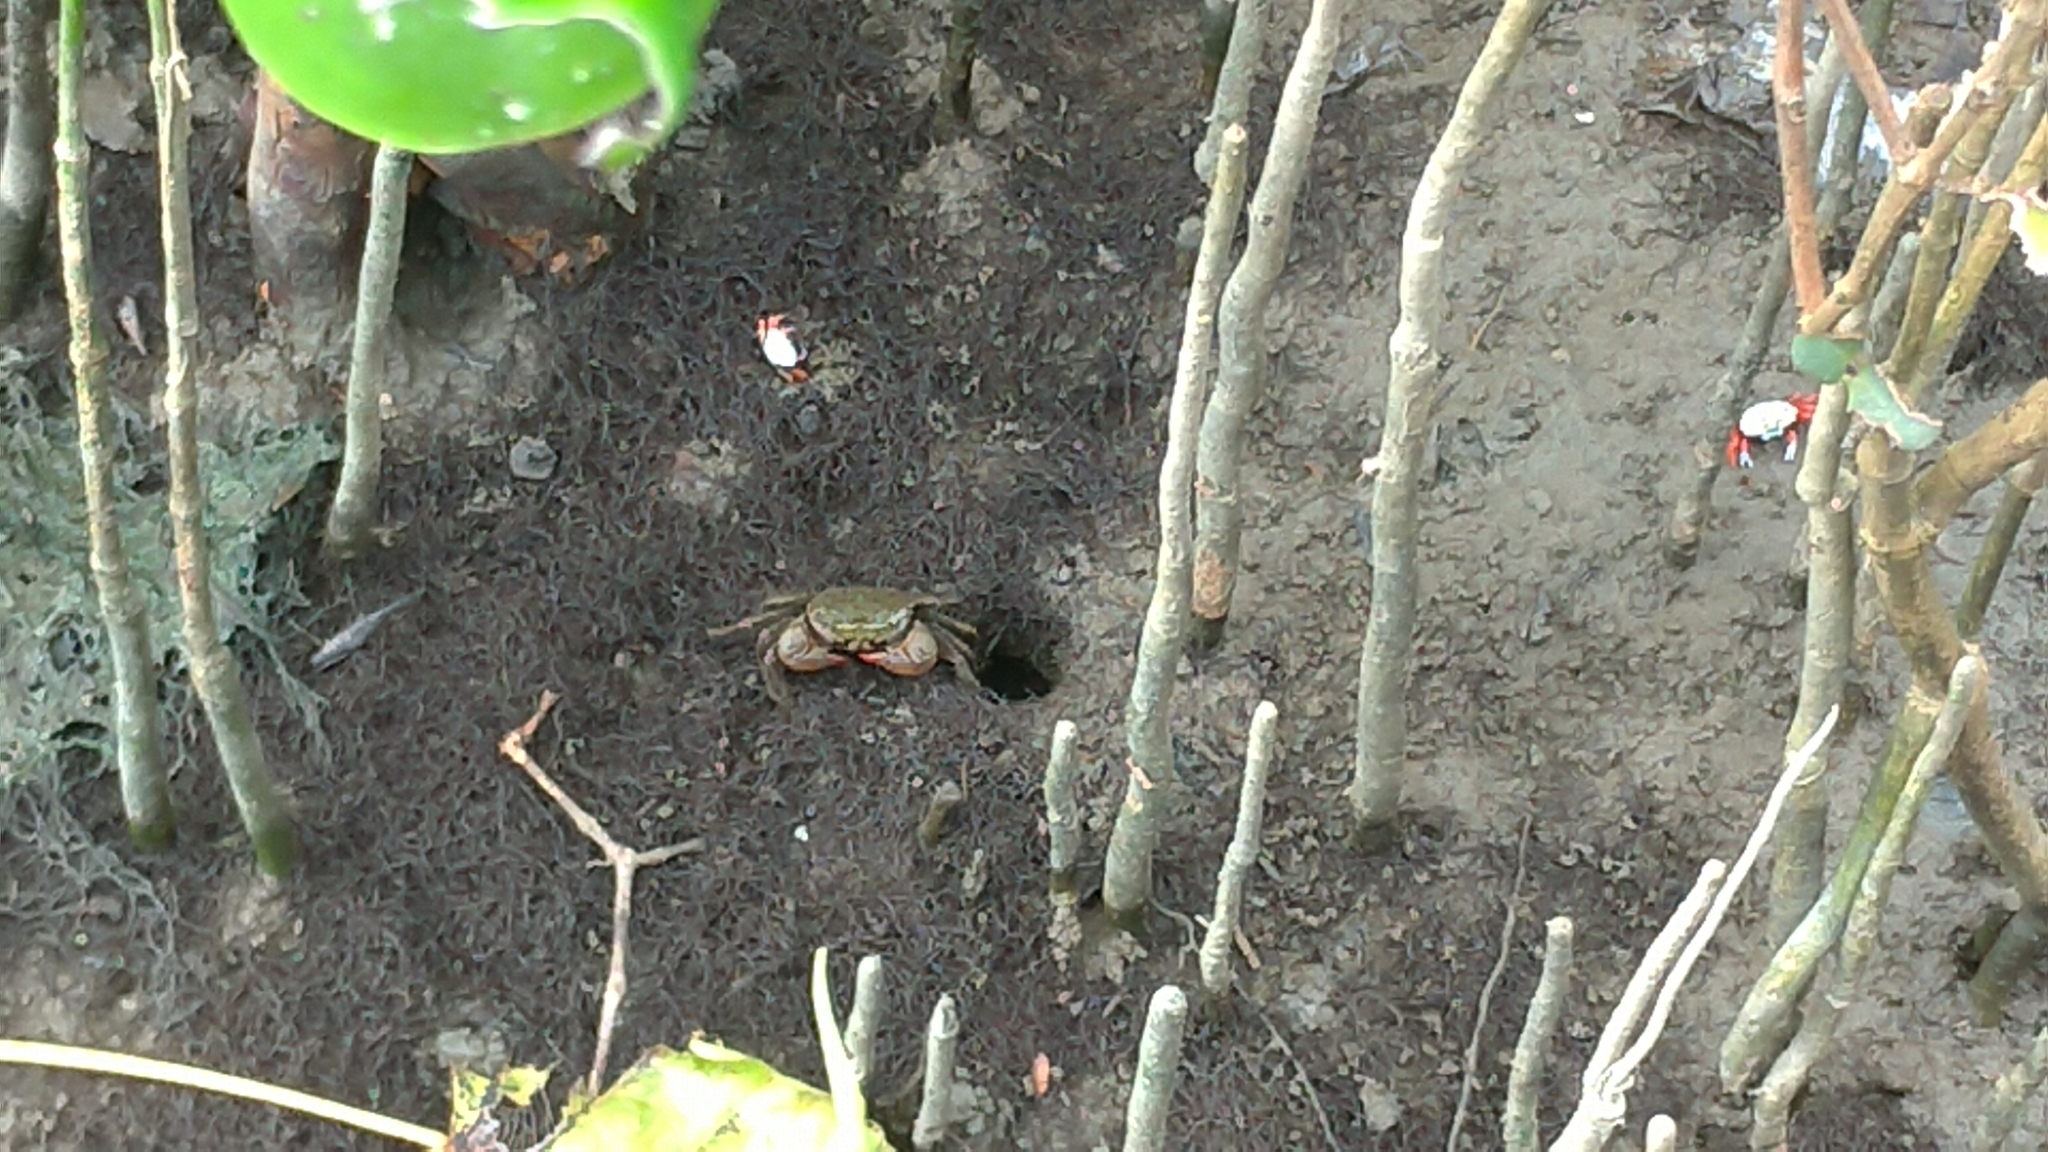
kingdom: Animalia
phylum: Arthropoda
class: Malacostraca
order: Decapoda
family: Sesarmidae
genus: Parasesarma
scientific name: Parasesarma bidens
